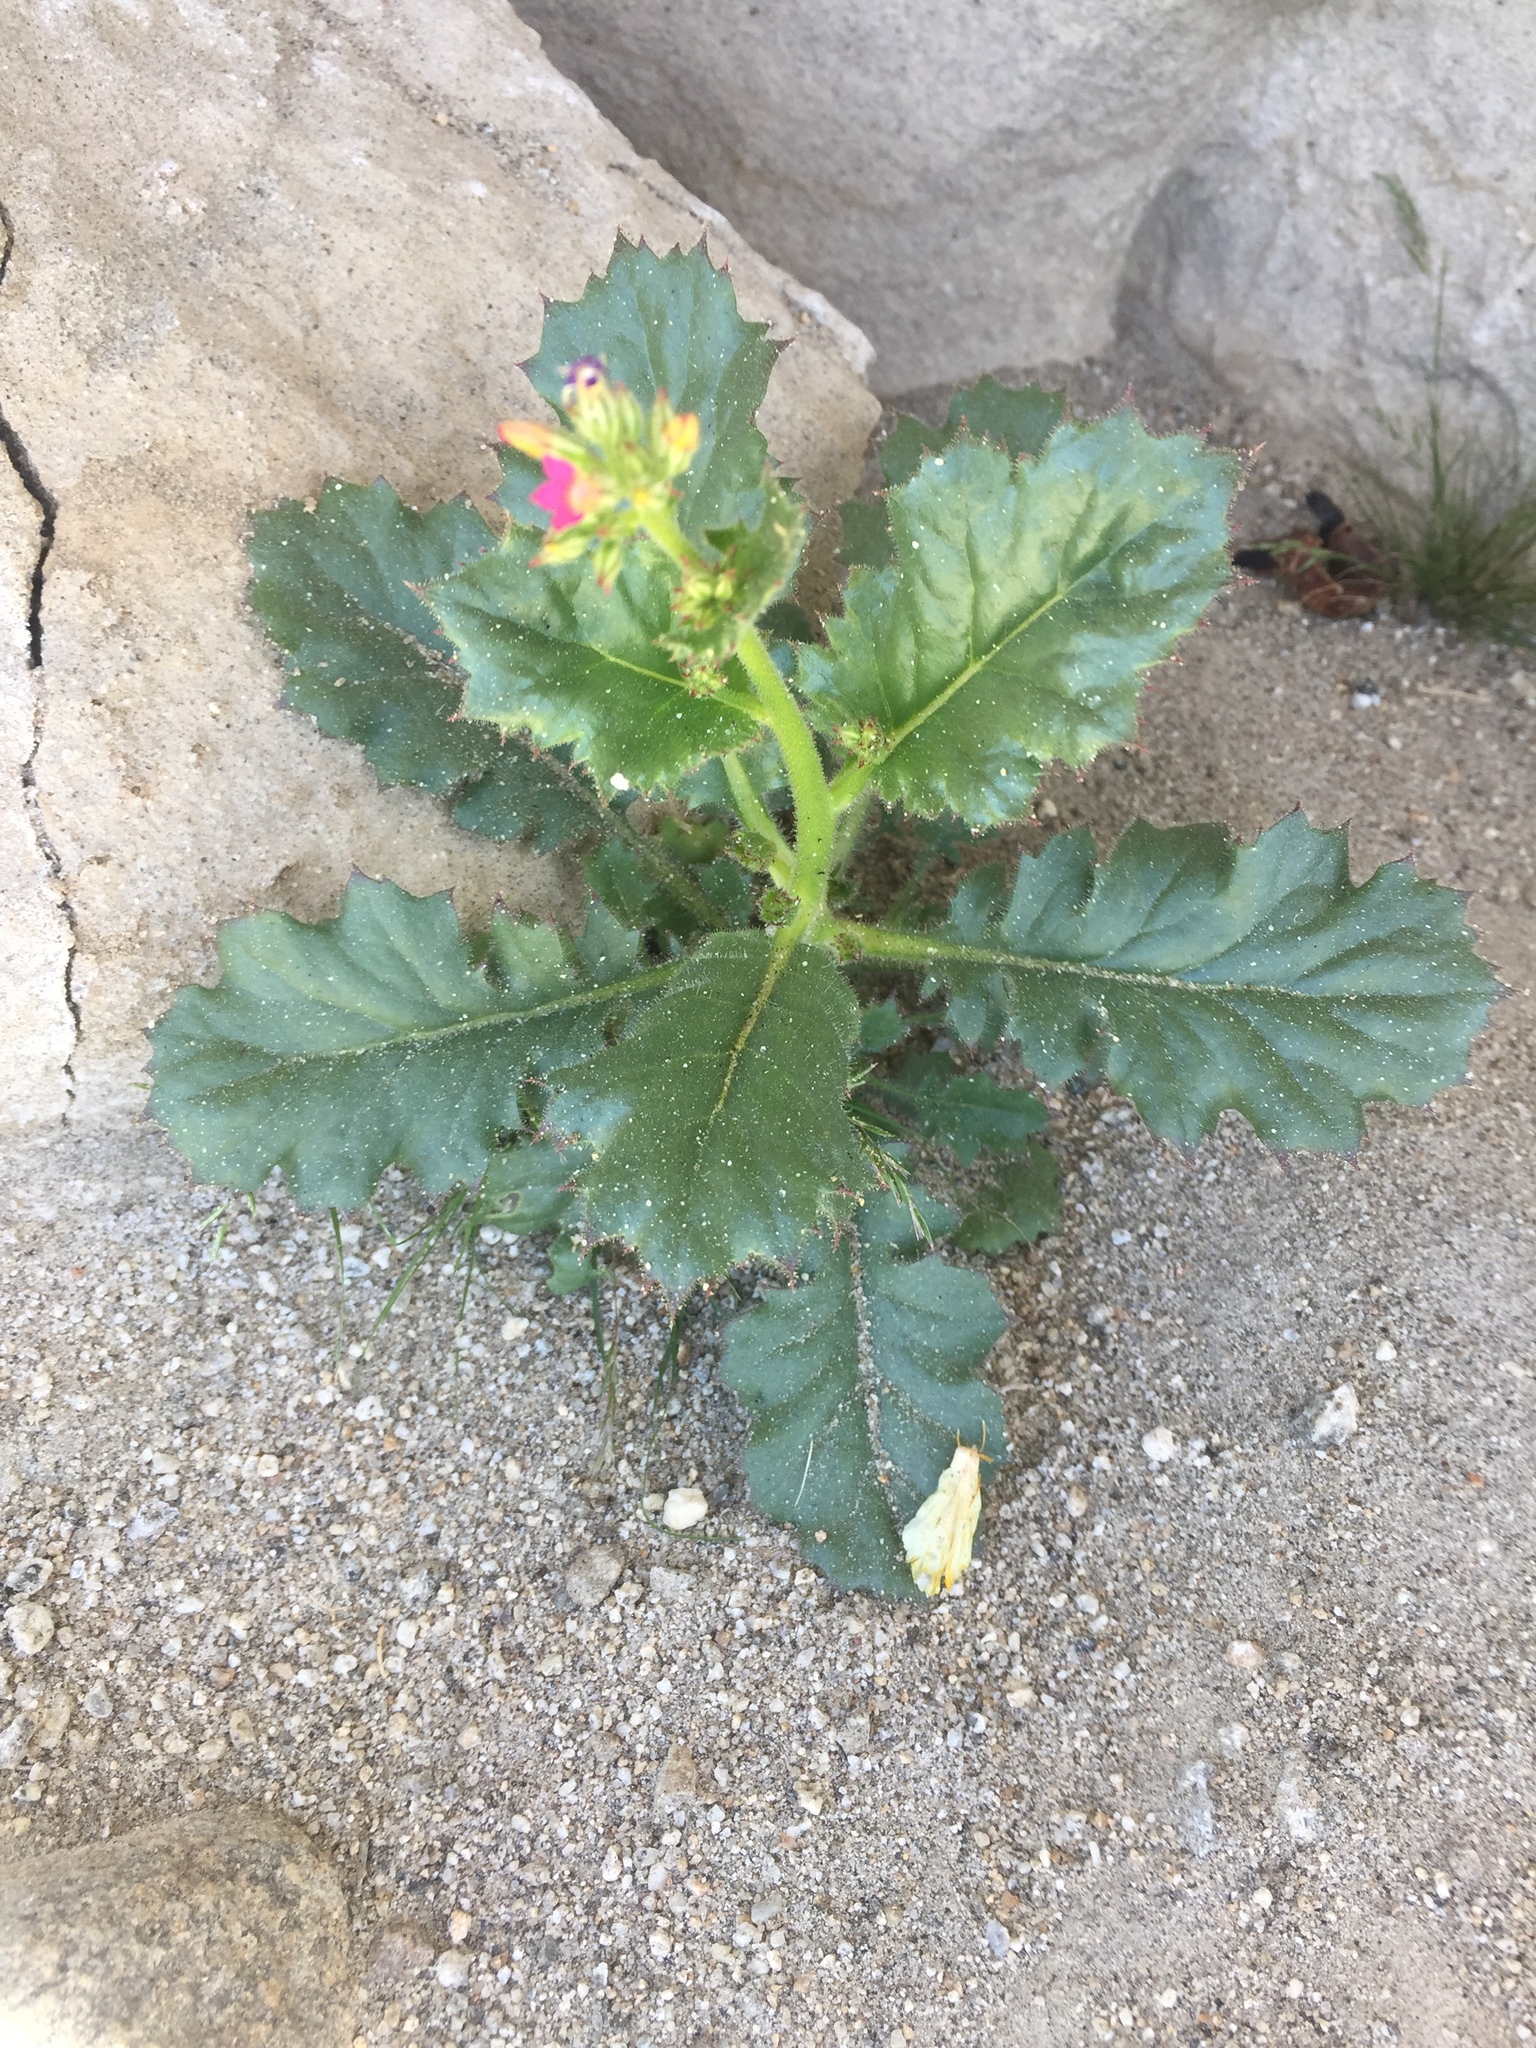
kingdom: Plantae
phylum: Tracheophyta
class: Magnoliopsida
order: Ericales
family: Polemoniaceae
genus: Aliciella
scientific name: Aliciella latifolia
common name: Broad-leaf gilia
